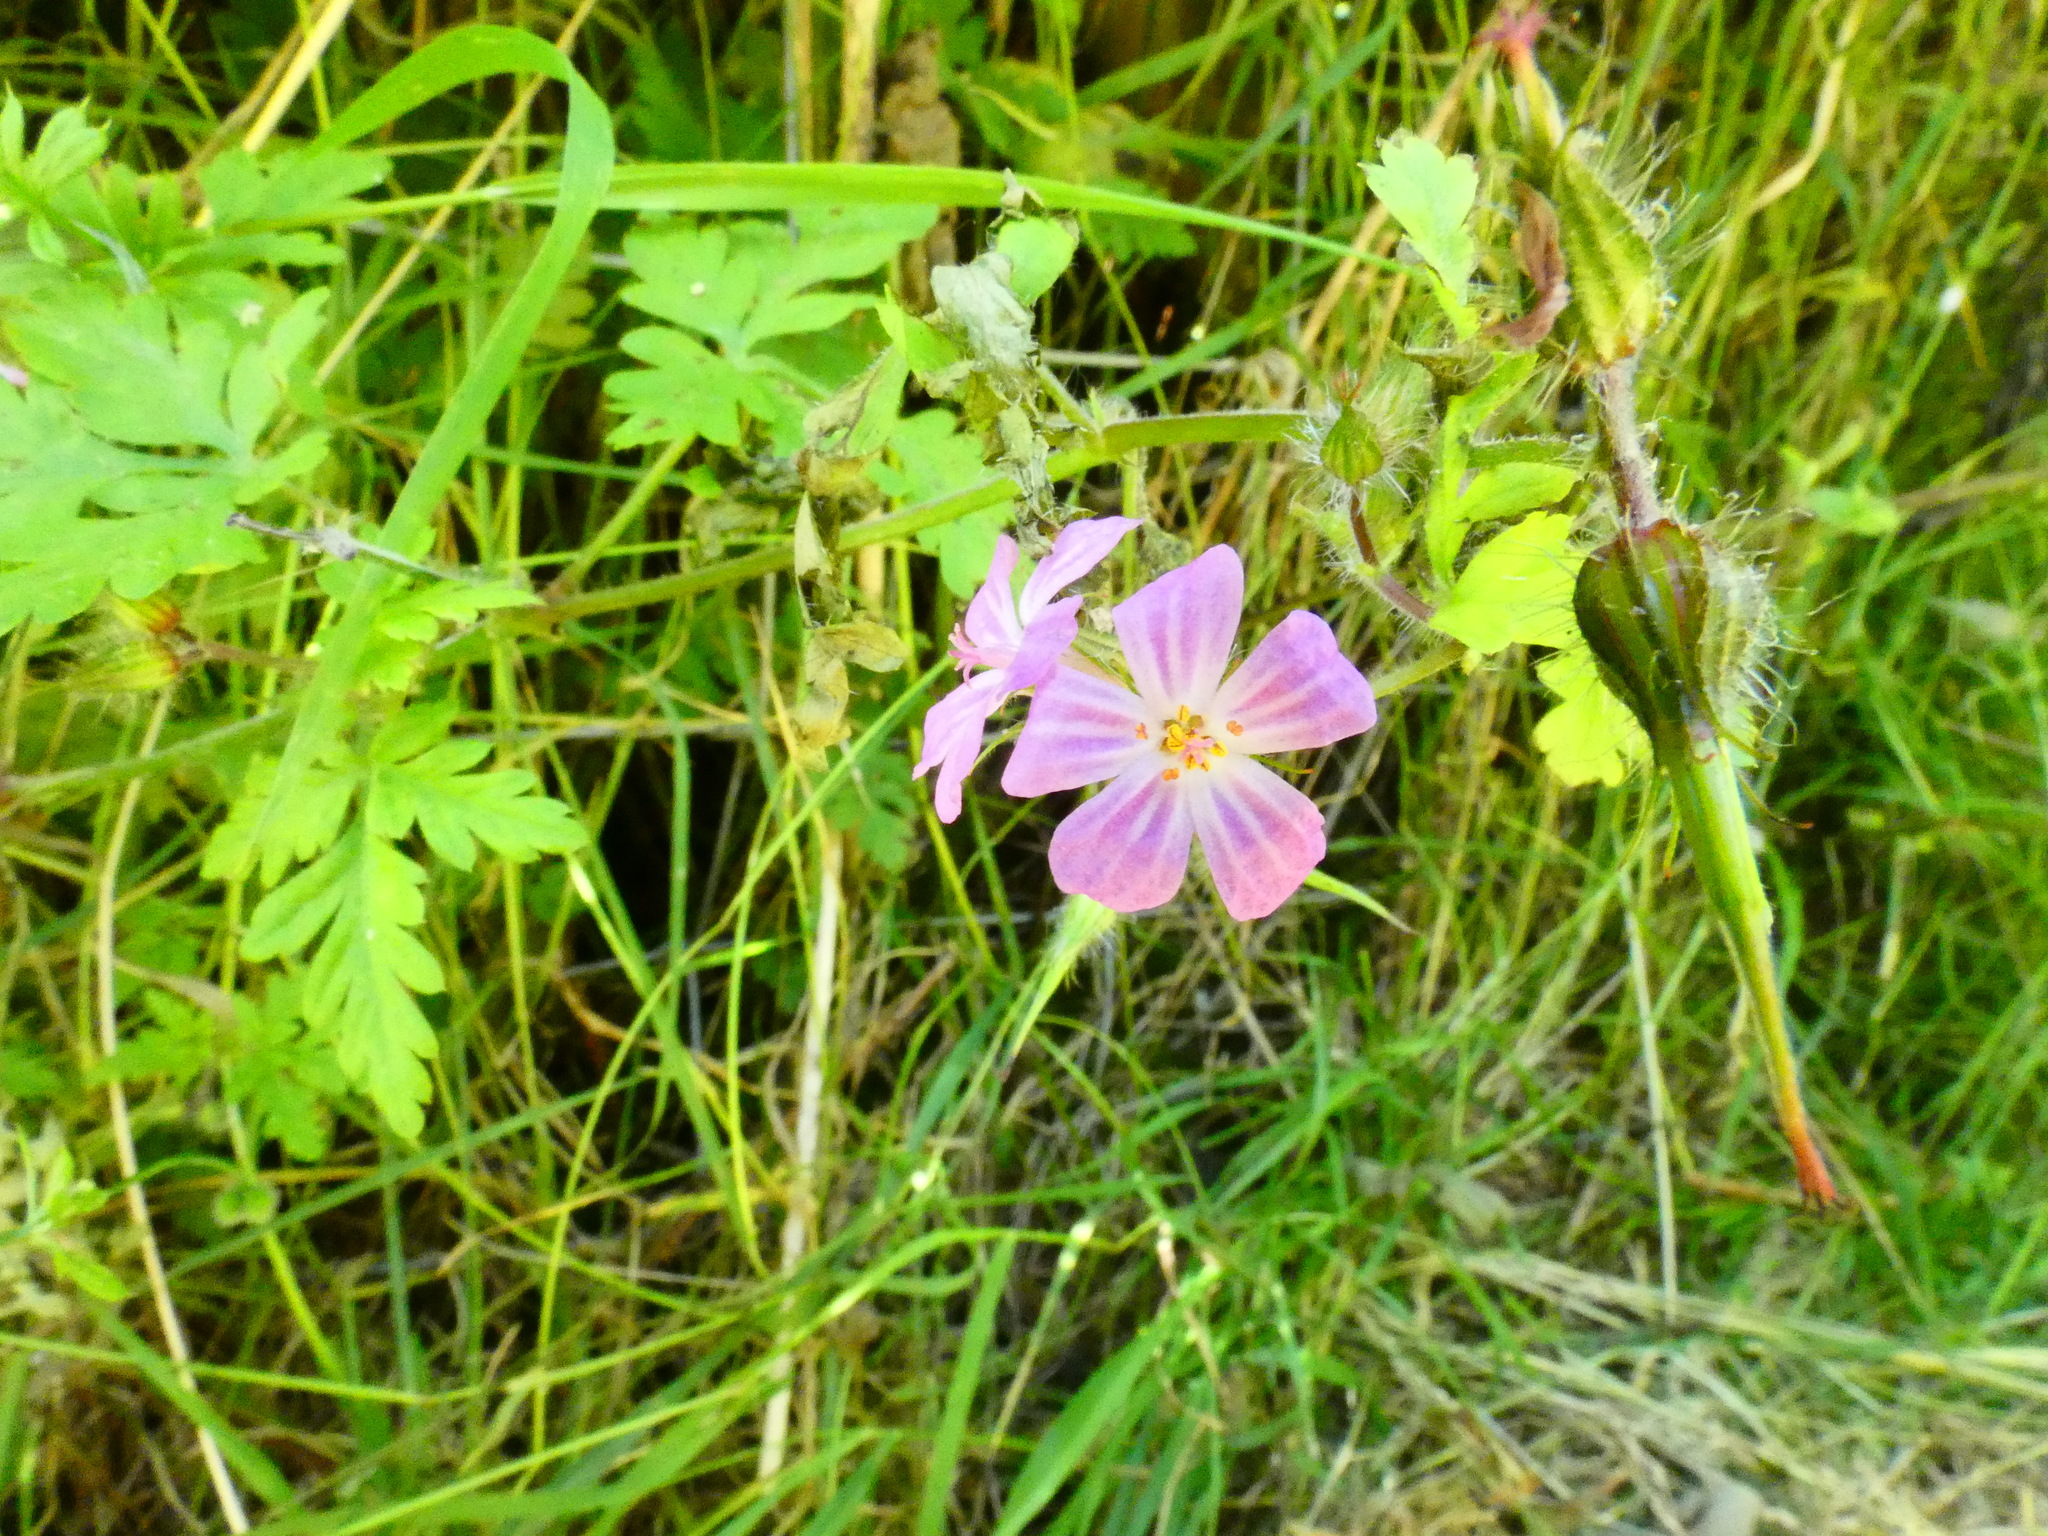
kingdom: Plantae
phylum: Tracheophyta
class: Magnoliopsida
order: Geraniales
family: Geraniaceae
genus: Geranium
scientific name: Geranium robertianum
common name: Herb-robert
